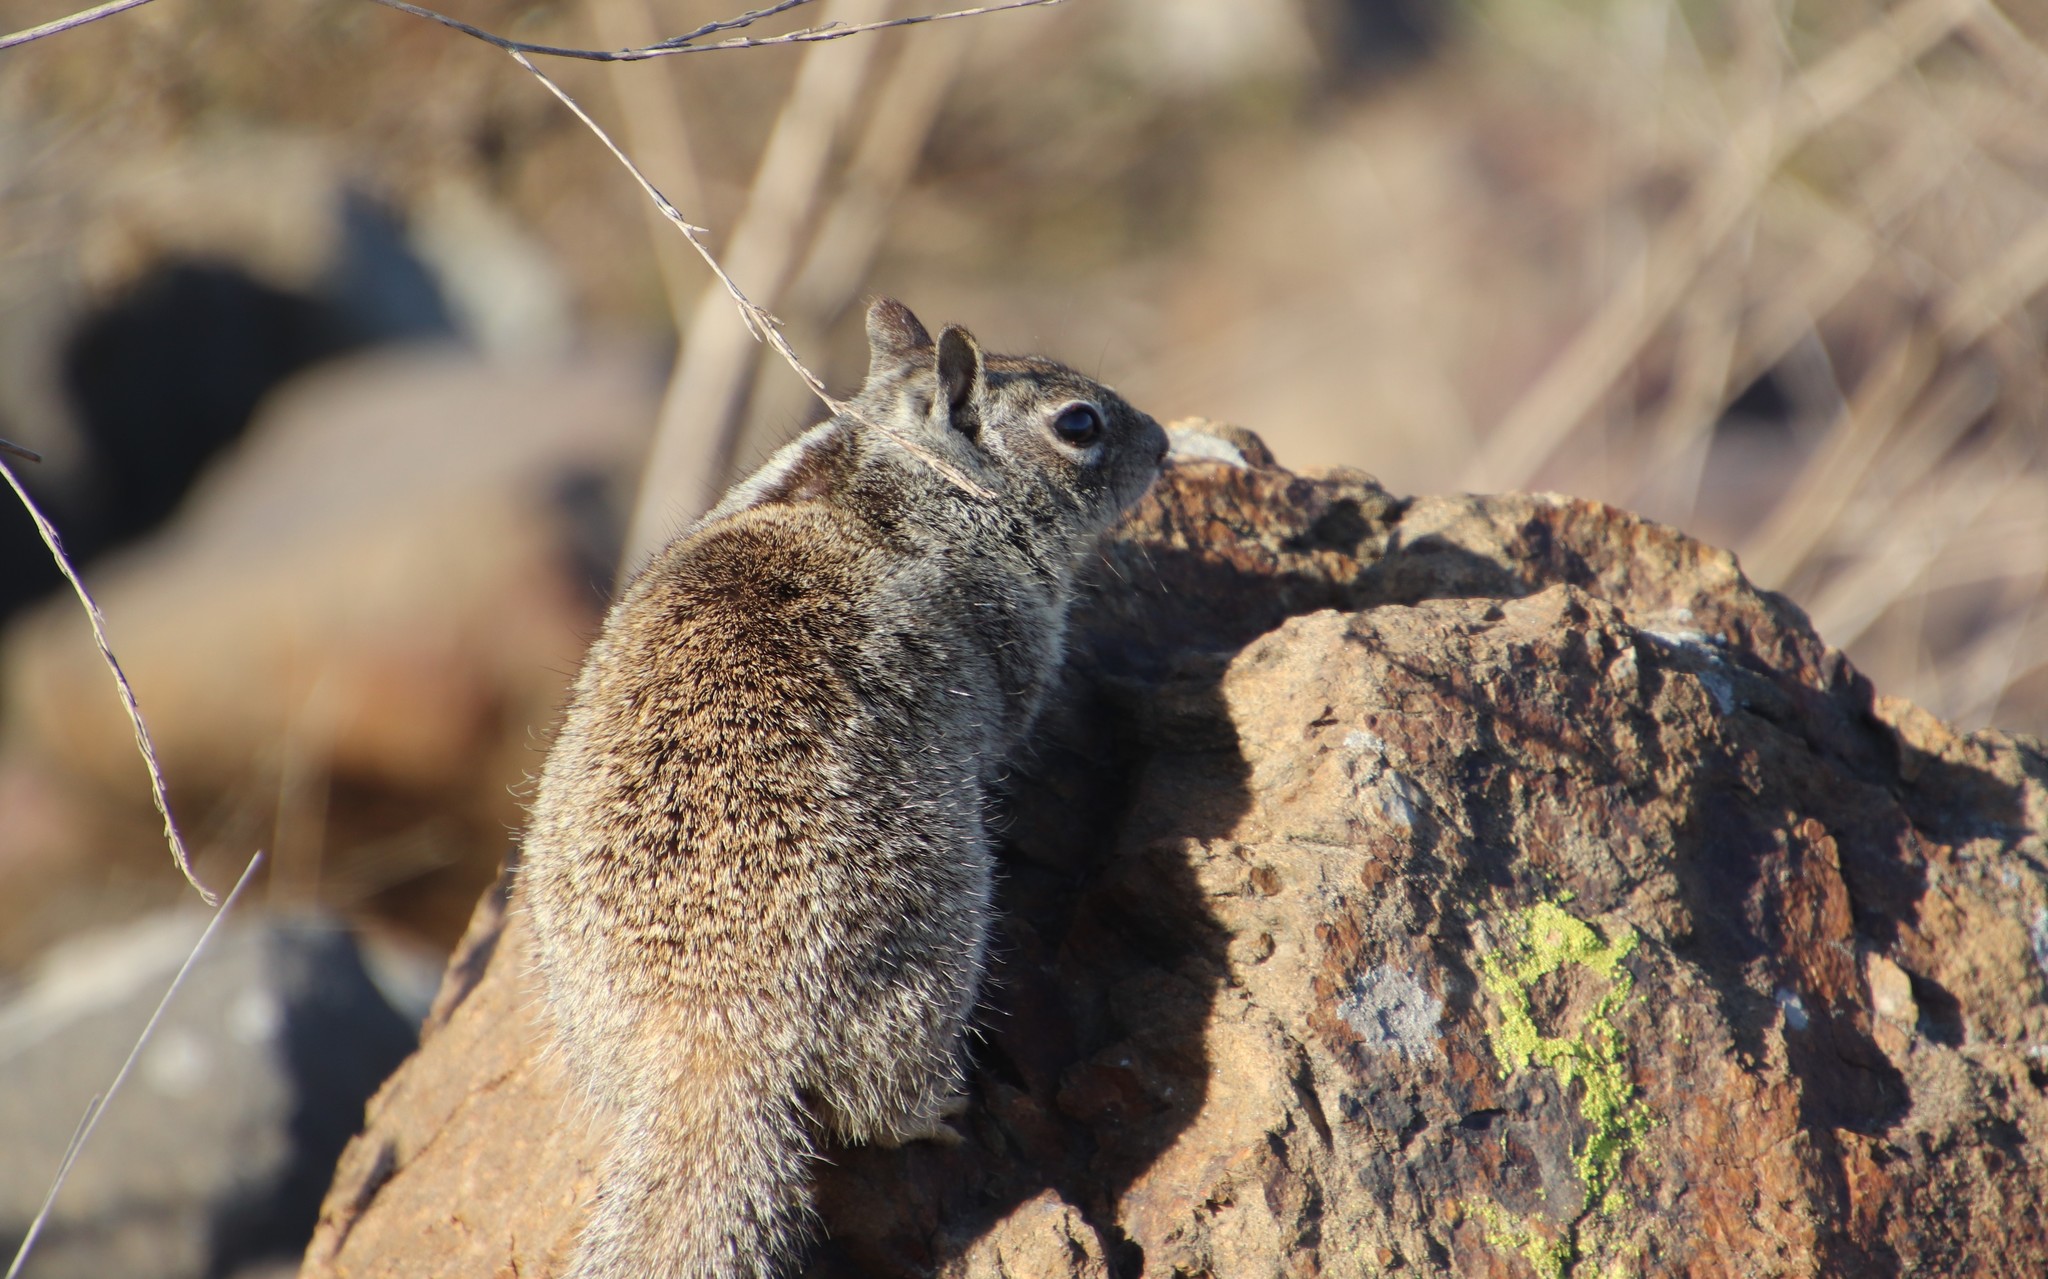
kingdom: Animalia
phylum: Chordata
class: Mammalia
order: Rodentia
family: Sciuridae
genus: Otospermophilus
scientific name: Otospermophilus beecheyi
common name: California ground squirrel
